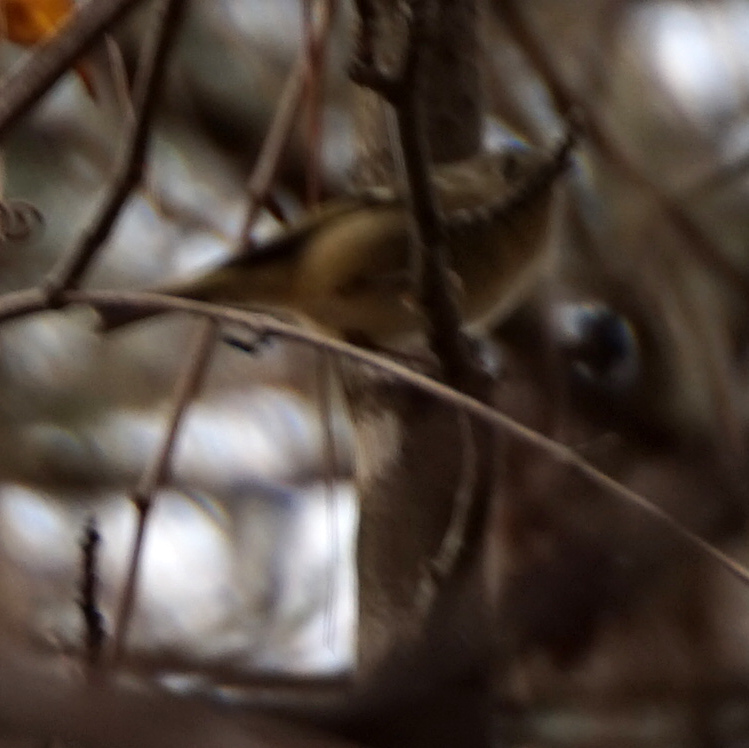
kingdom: Animalia
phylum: Chordata
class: Aves
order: Passeriformes
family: Regulidae
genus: Regulus
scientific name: Regulus calendula
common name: Ruby-crowned kinglet
